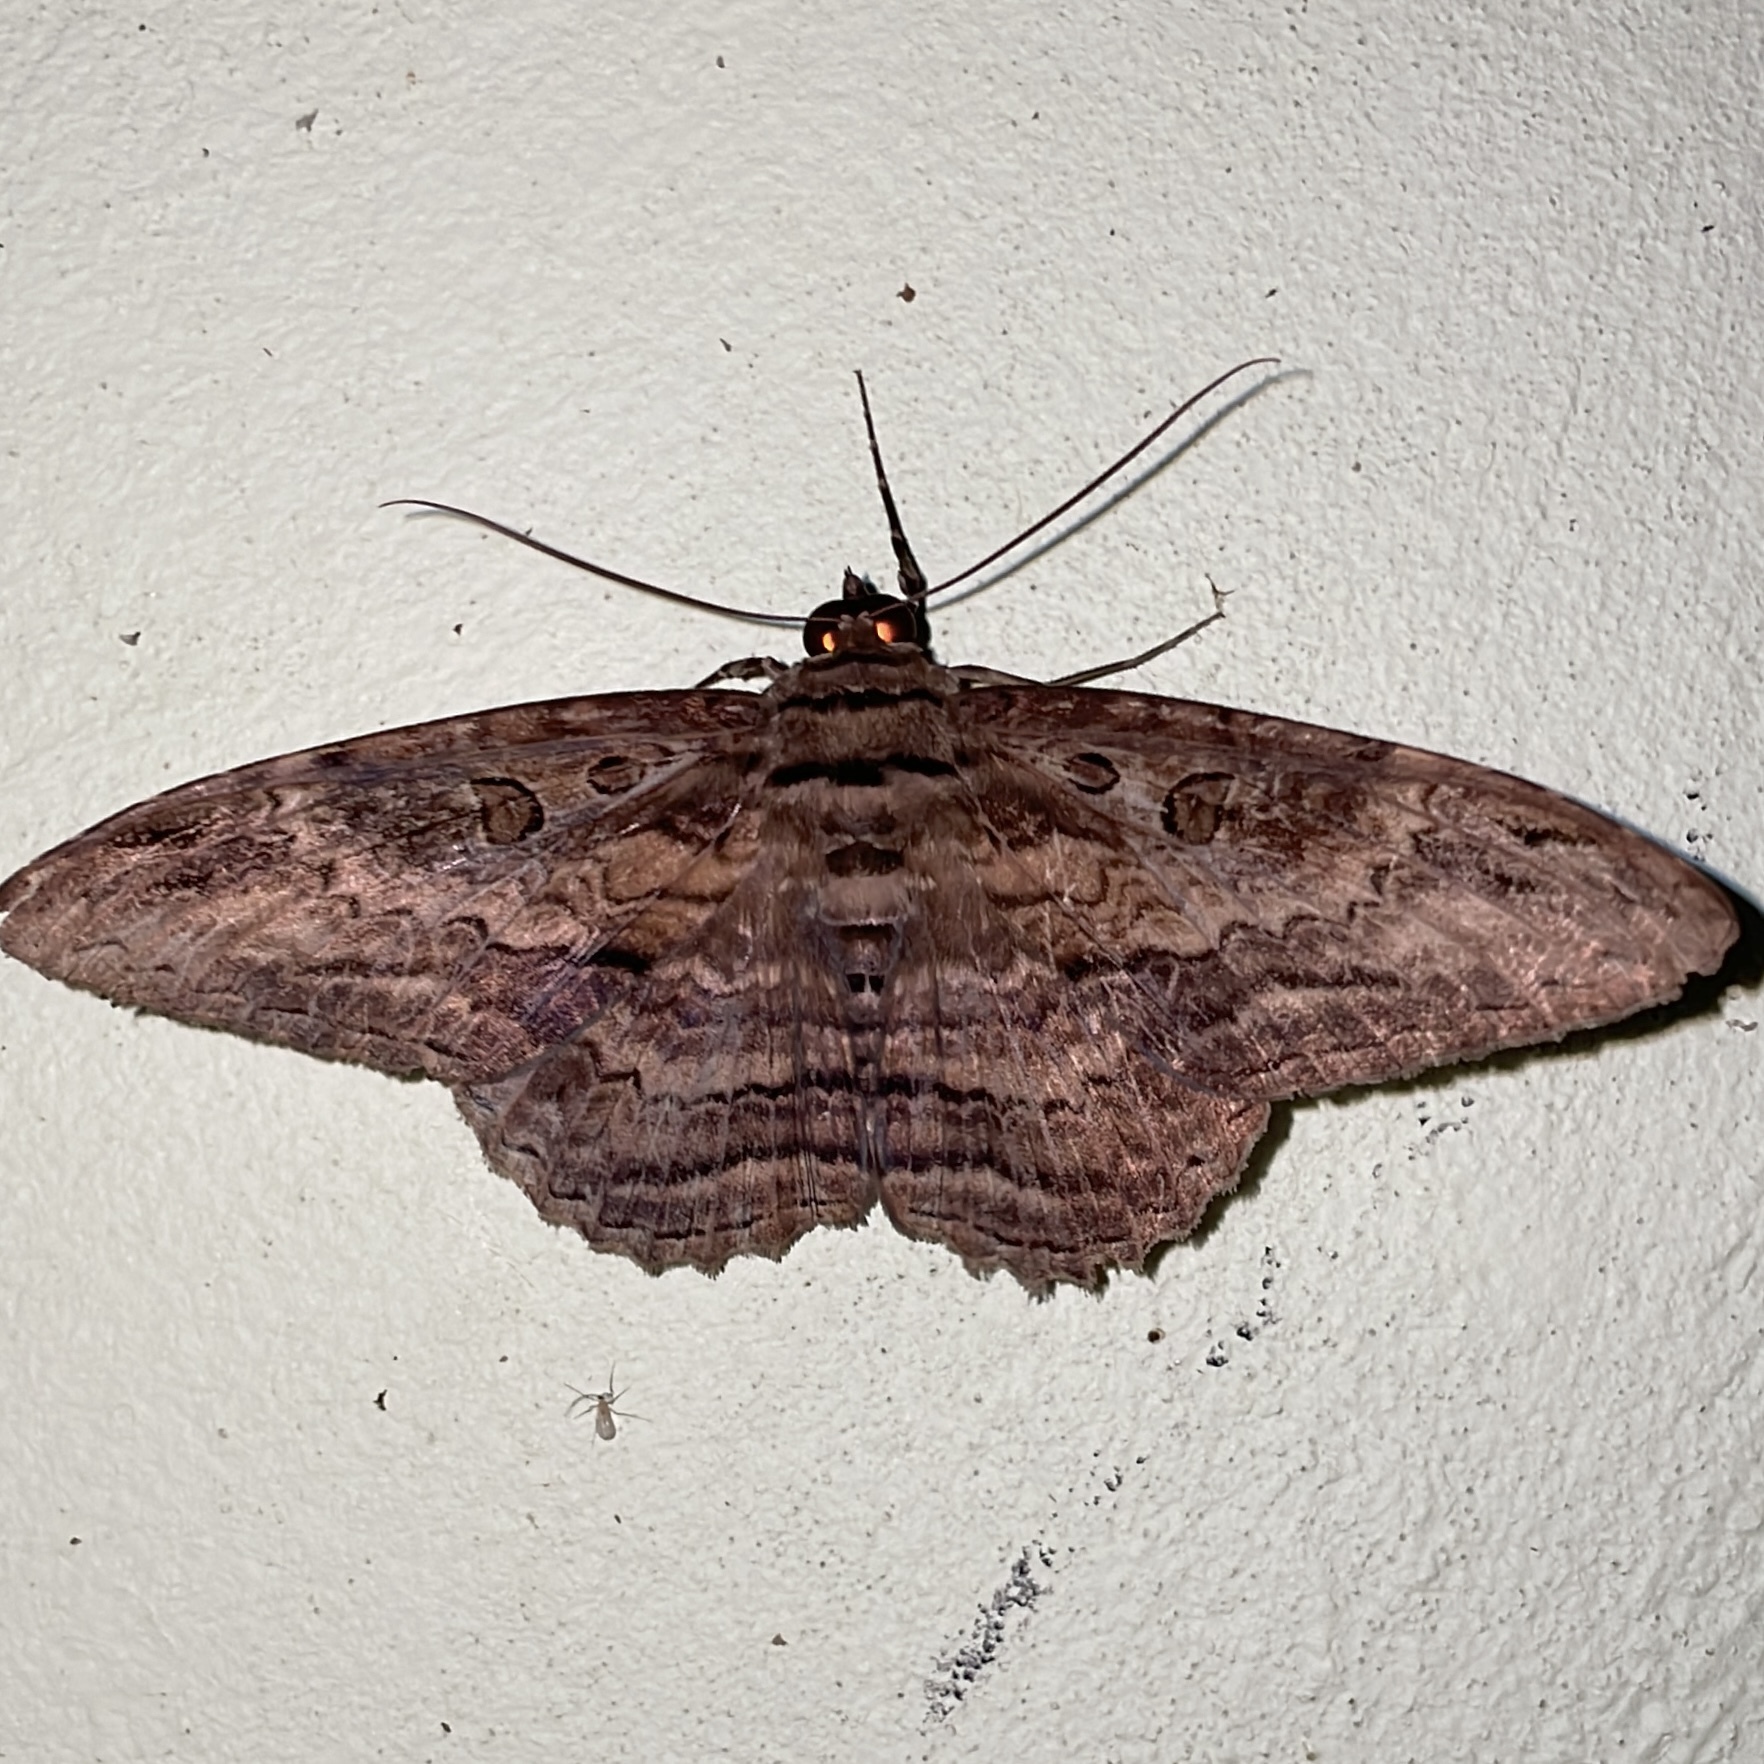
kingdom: Animalia
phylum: Arthropoda
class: Insecta
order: Lepidoptera
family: Erebidae
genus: Feigeria
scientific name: Feigeria buteo
